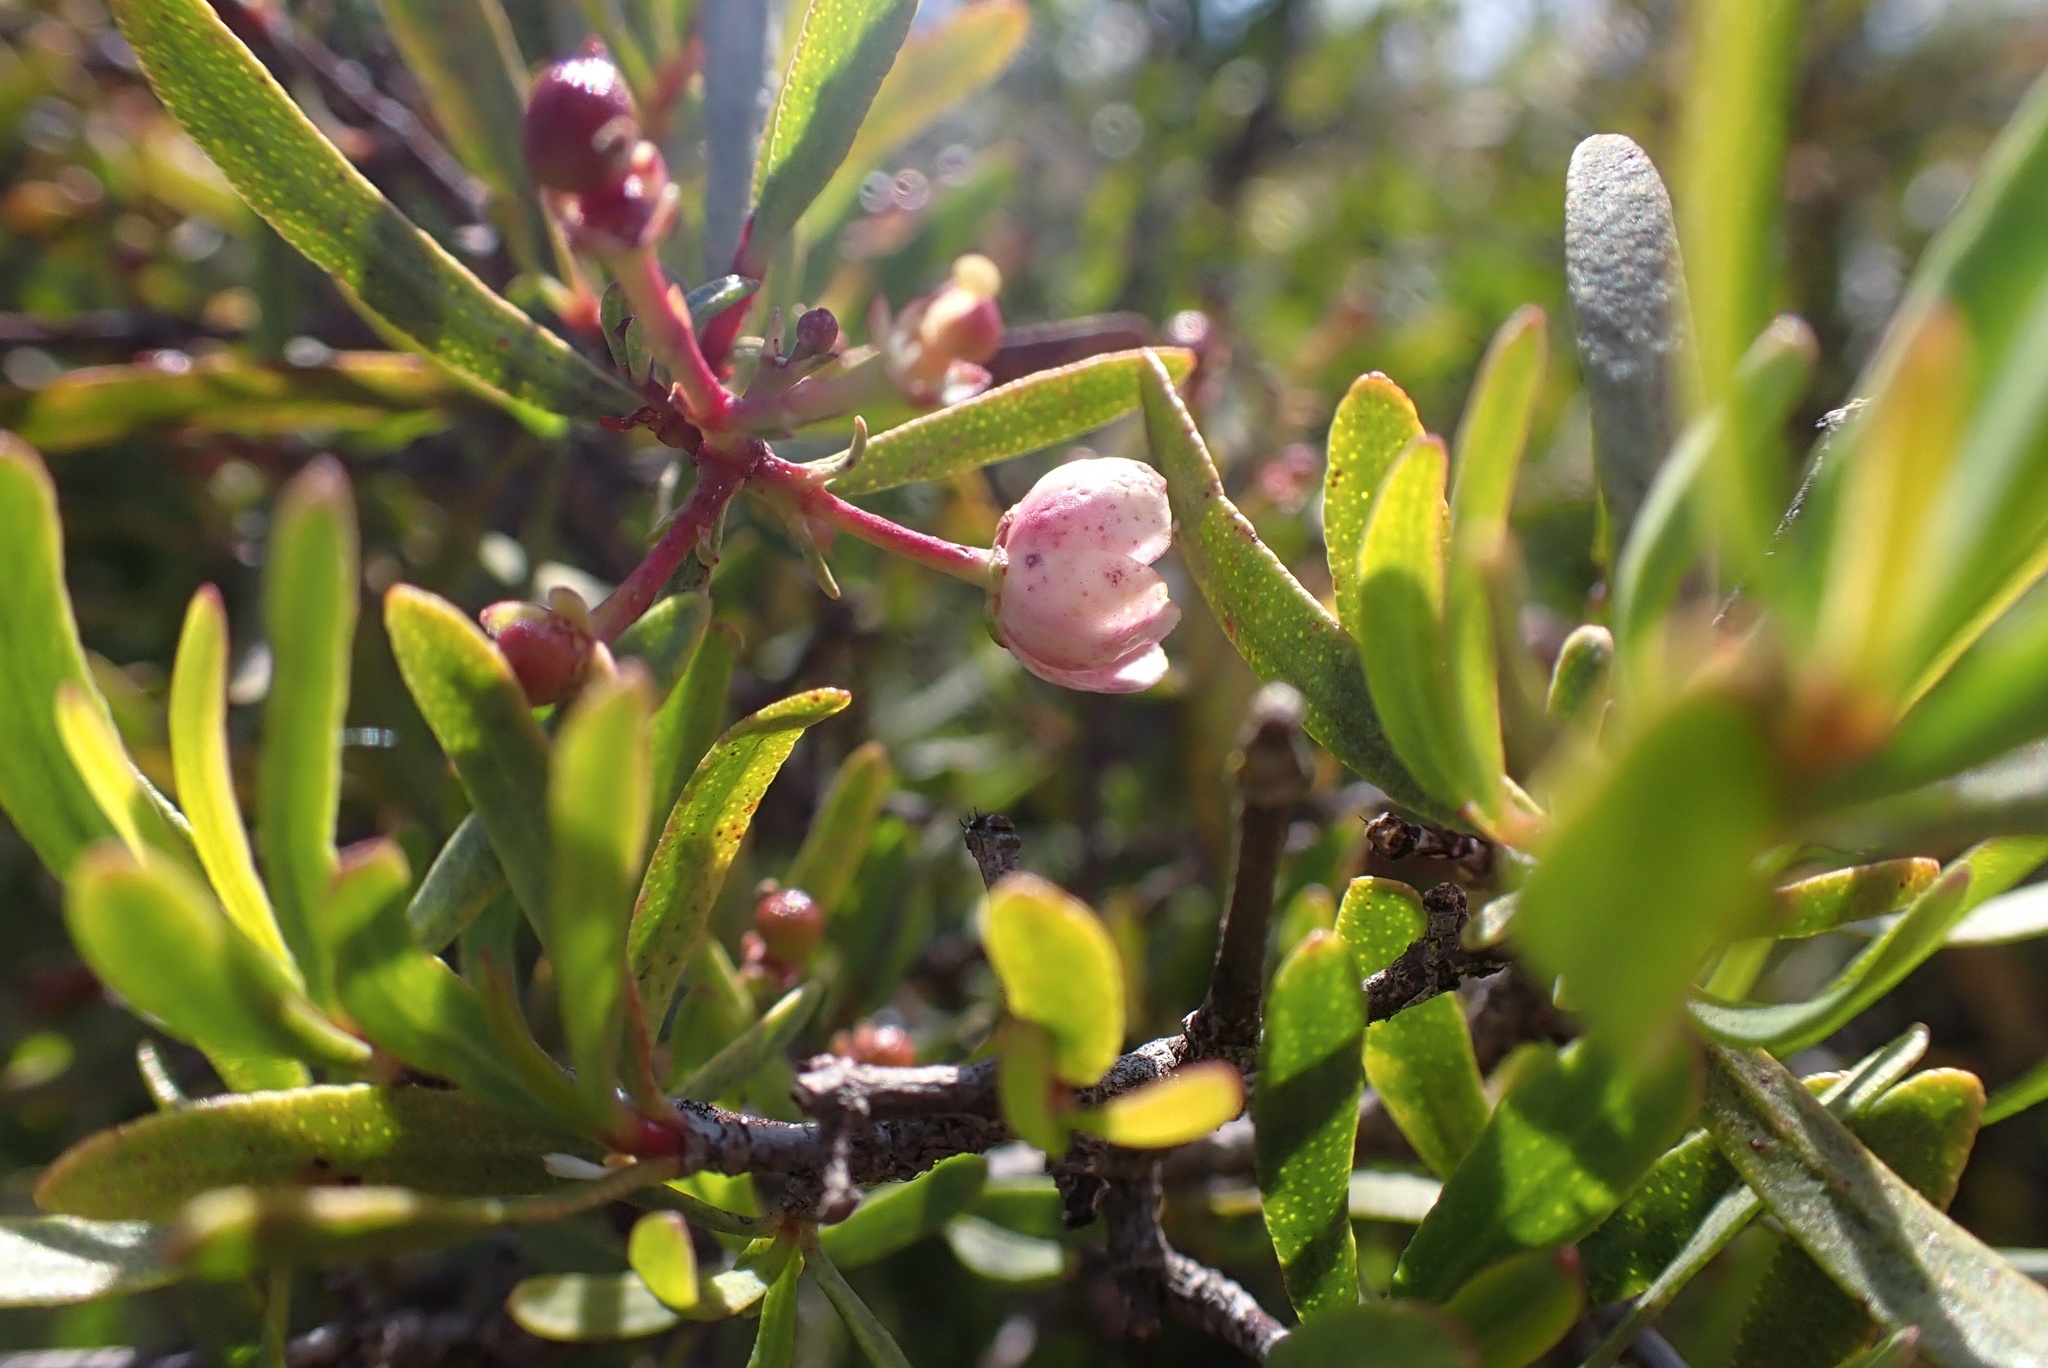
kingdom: Plantae
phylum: Tracheophyta
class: Magnoliopsida
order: Sapindales
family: Rutaceae
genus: Cneoridium
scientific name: Cneoridium dumosum
